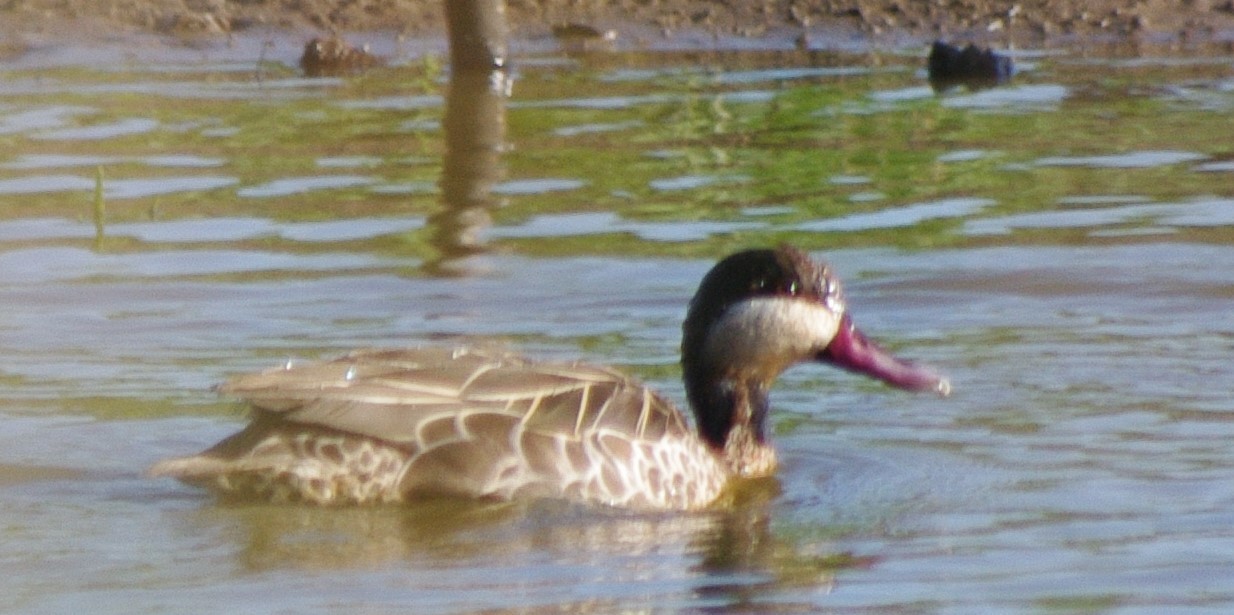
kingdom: Animalia
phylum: Chordata
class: Aves
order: Anseriformes
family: Anatidae
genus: Anas
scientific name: Anas erythrorhyncha
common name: Red-billed teal
